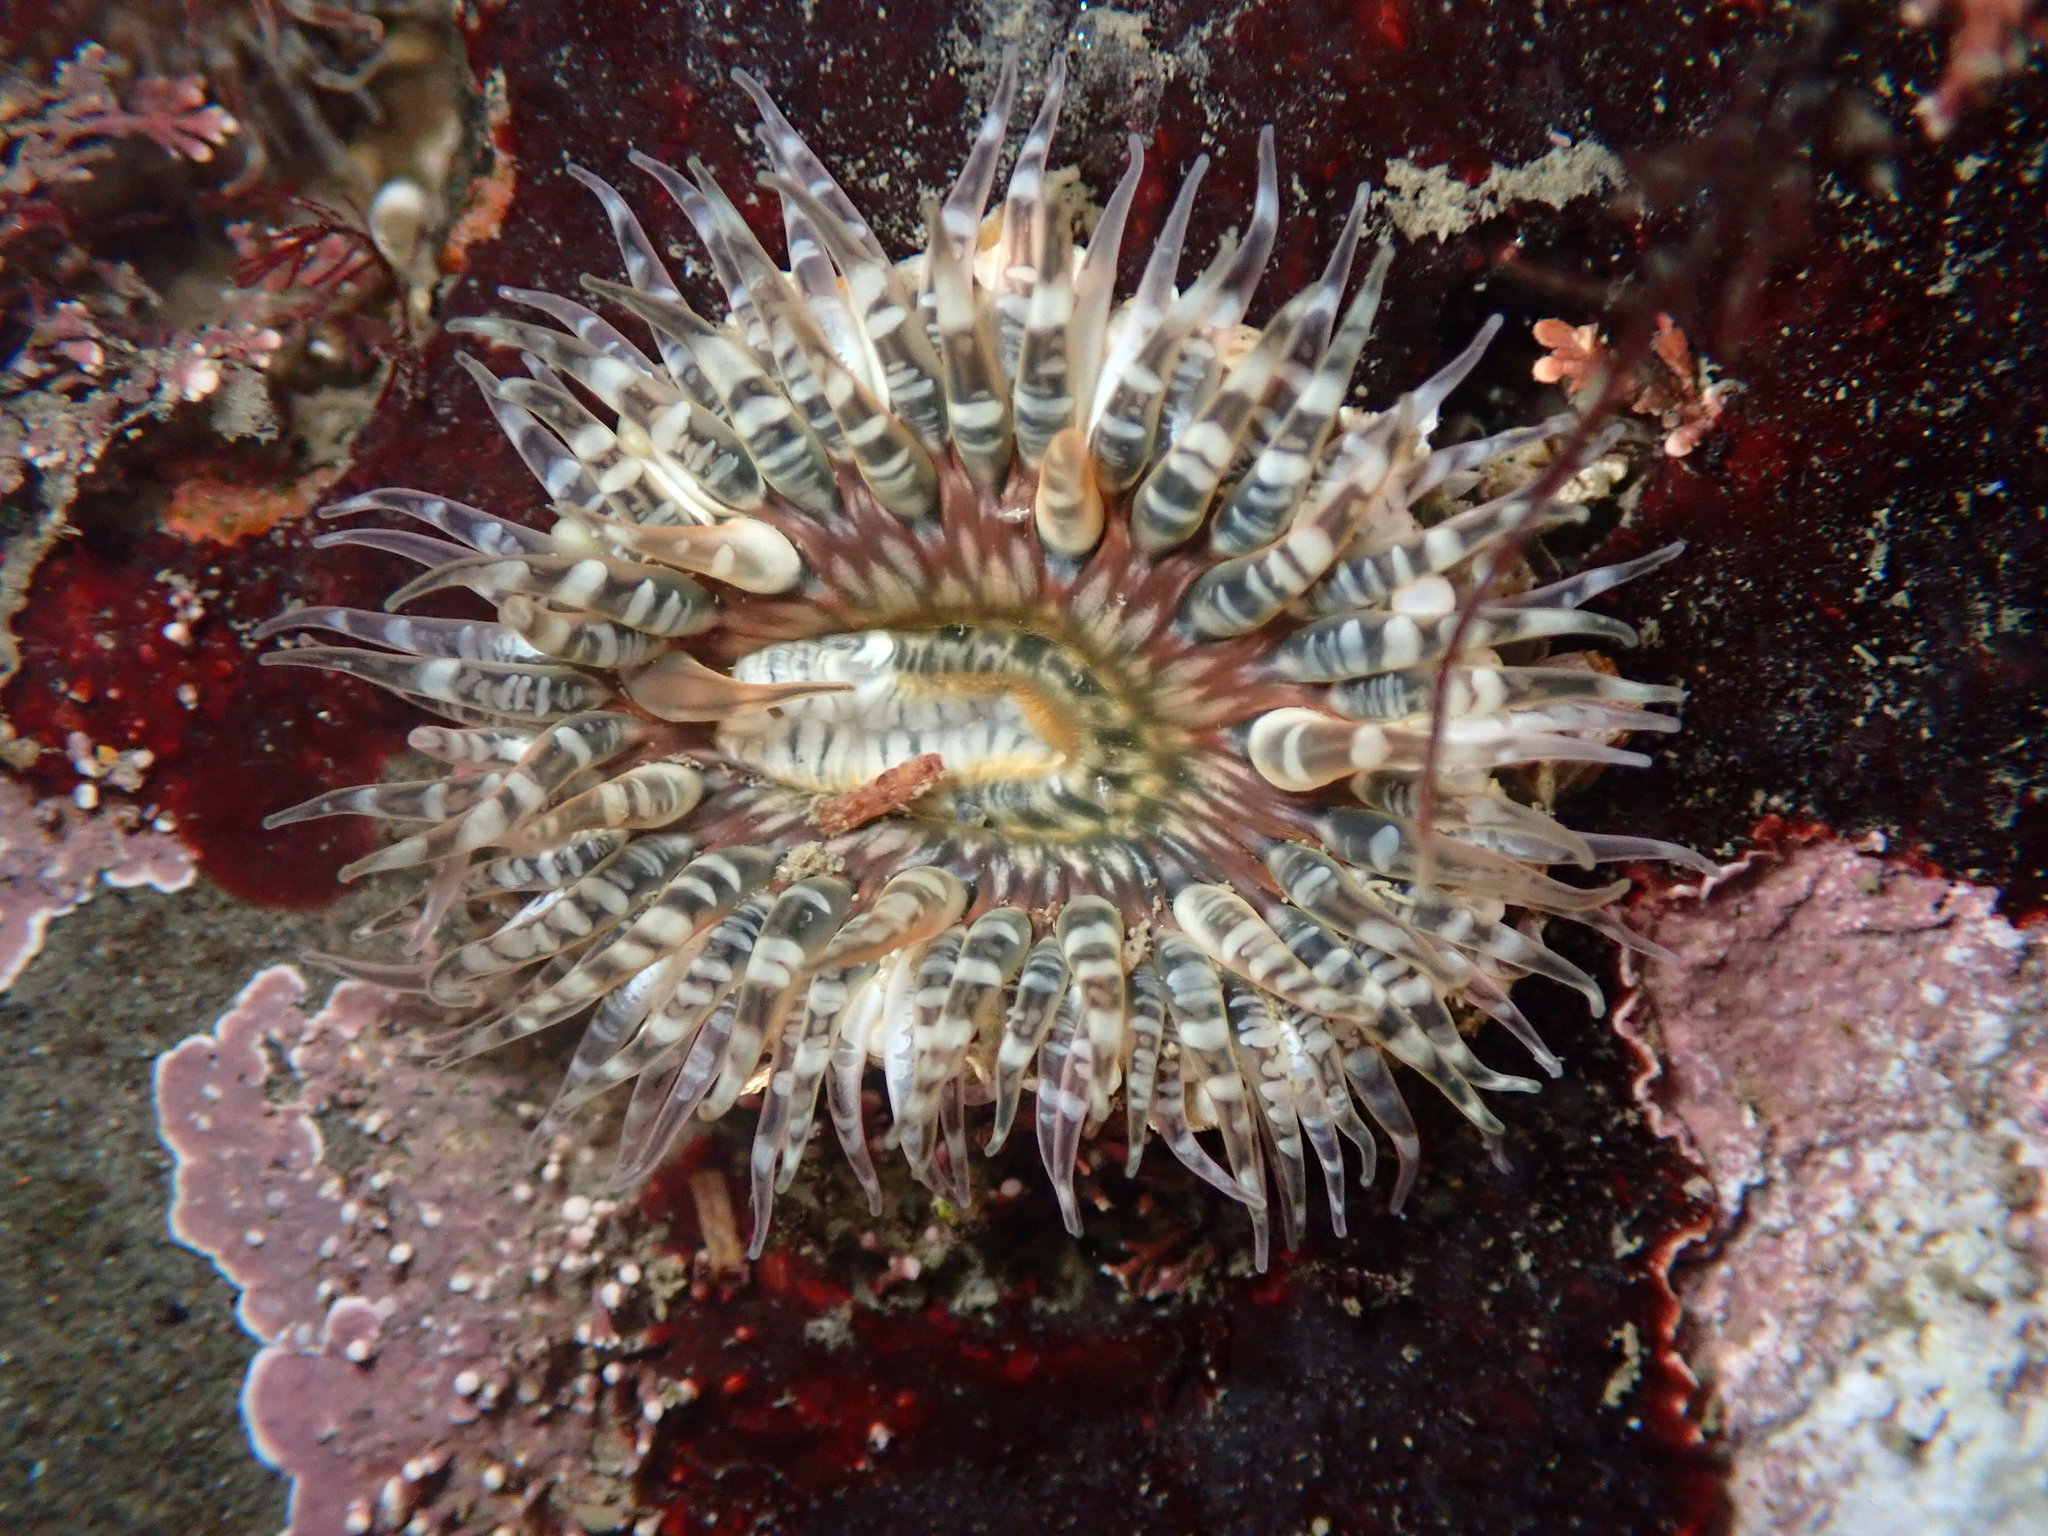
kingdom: Animalia
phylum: Cnidaria
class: Anthozoa
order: Actiniaria
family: Actiniidae
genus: Anthopleura
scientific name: Anthopleura artemisia
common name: Buried sea anemone
